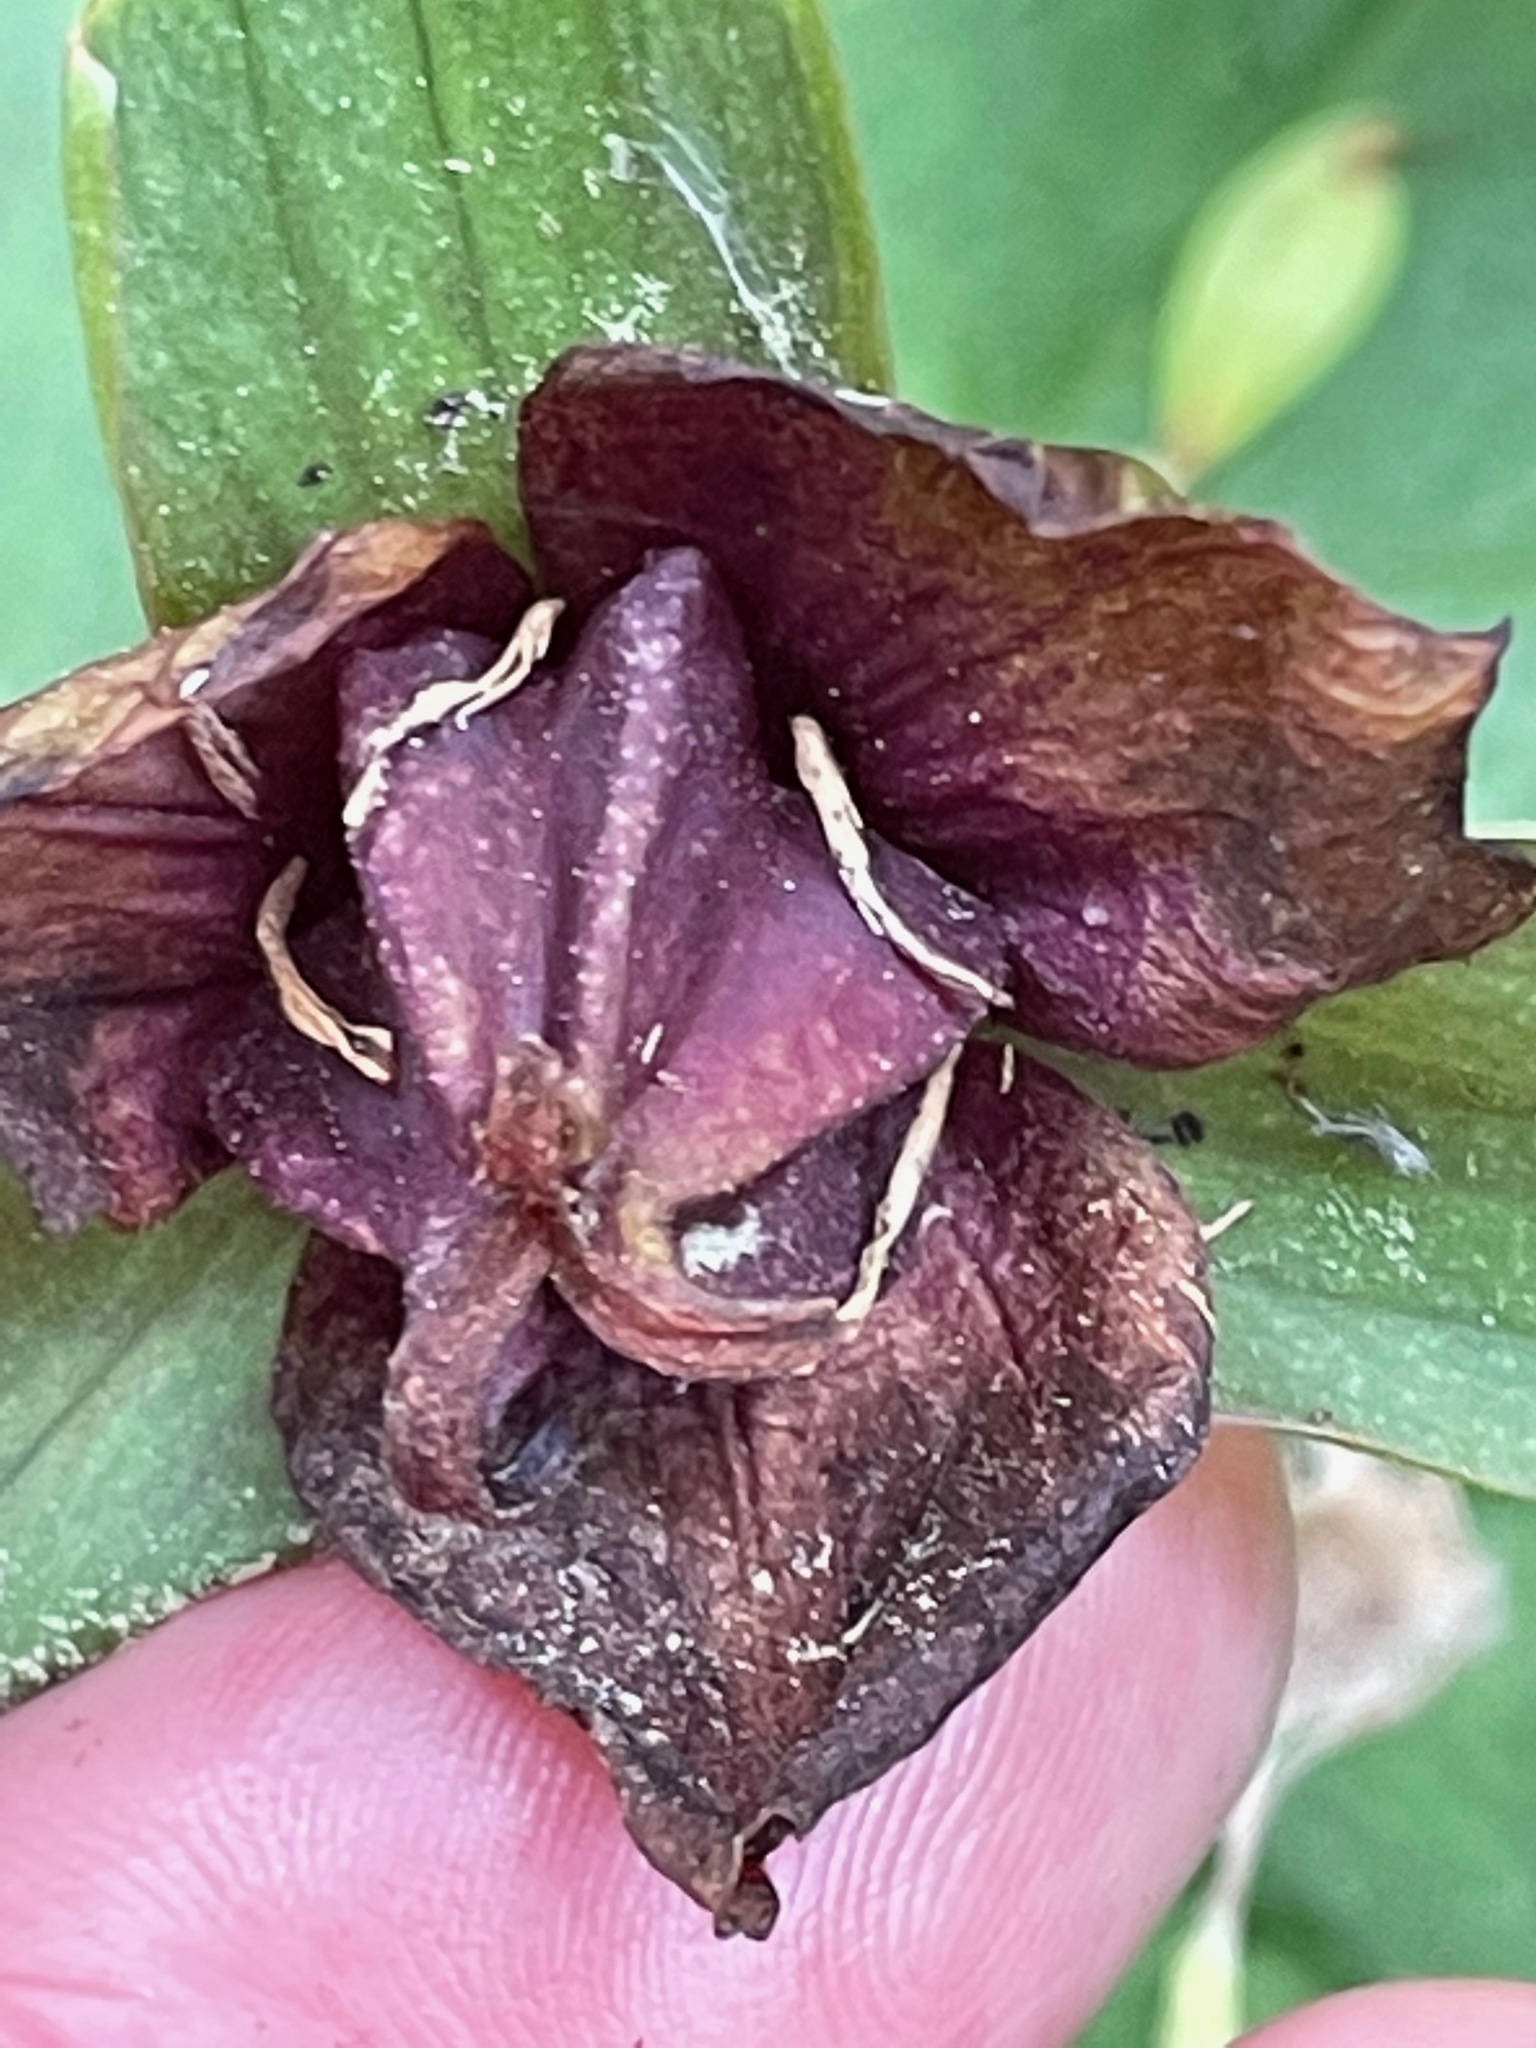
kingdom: Plantae
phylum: Tracheophyta
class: Liliopsida
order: Liliales
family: Melanthiaceae
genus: Trillium
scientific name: Trillium erectum
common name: Purple trillium
